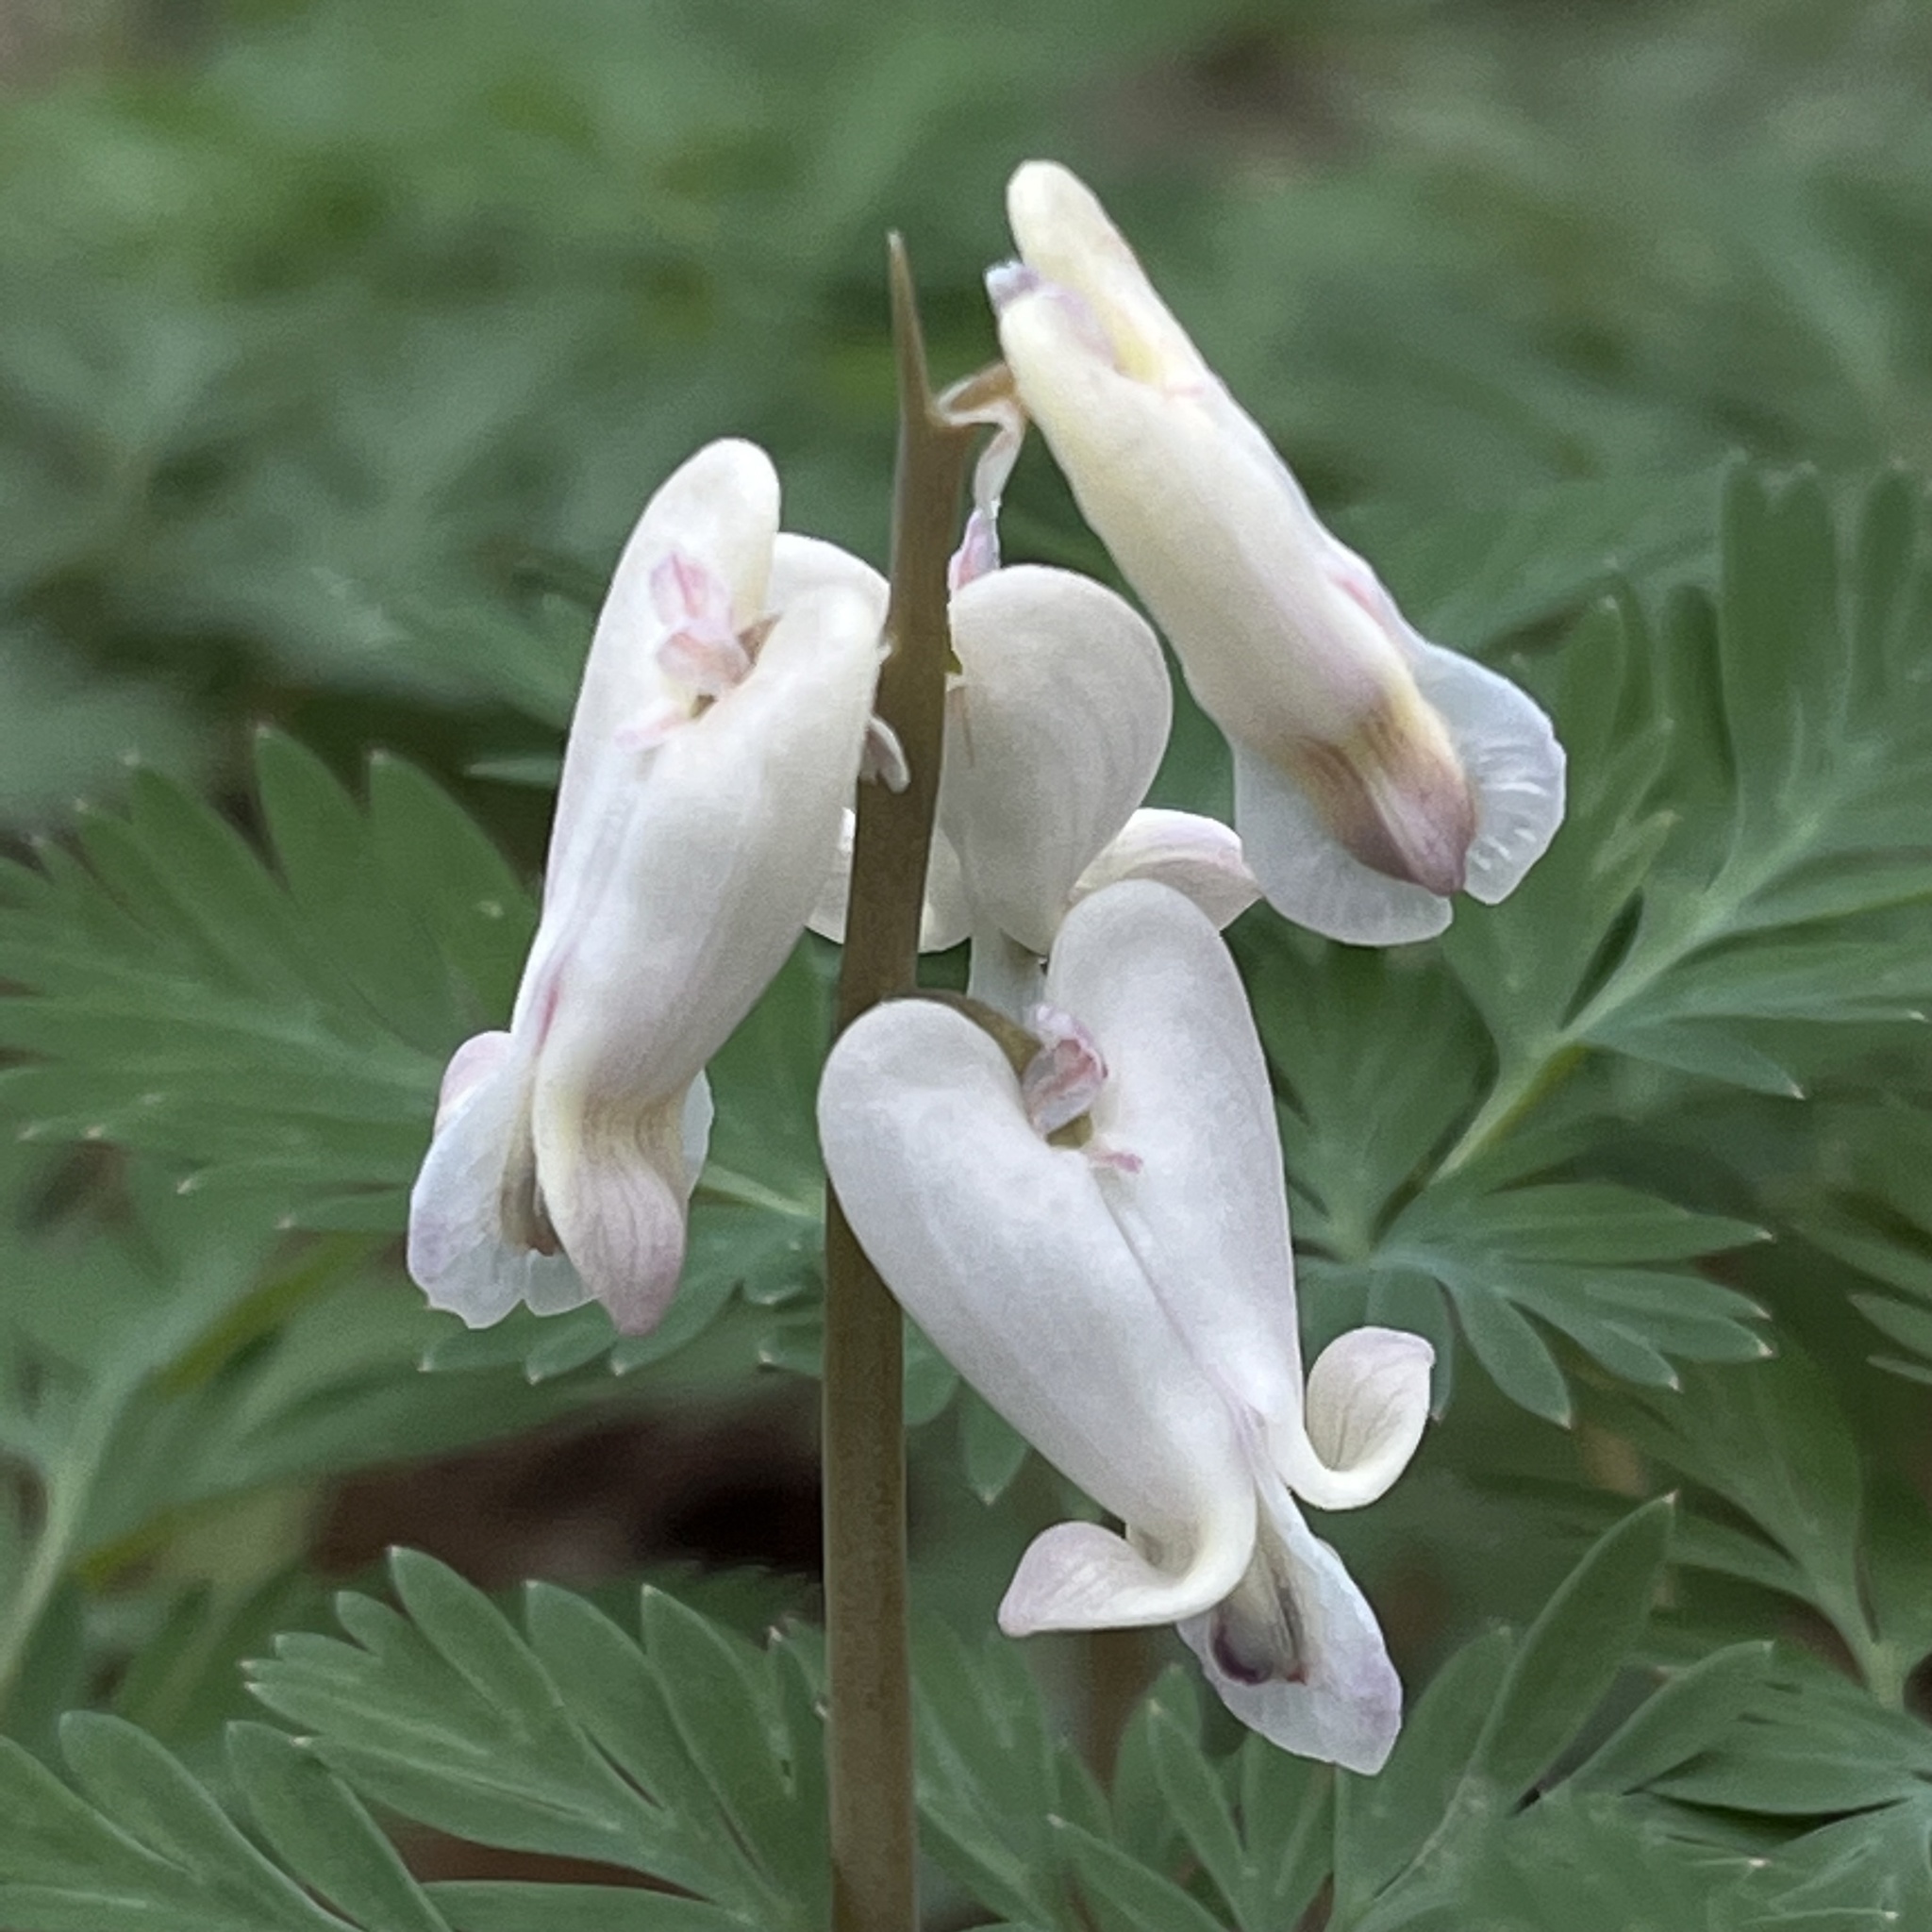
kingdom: Plantae
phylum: Tracheophyta
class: Magnoliopsida
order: Ranunculales
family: Papaveraceae
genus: Dicentra
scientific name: Dicentra canadensis
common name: Squirrel-corn
